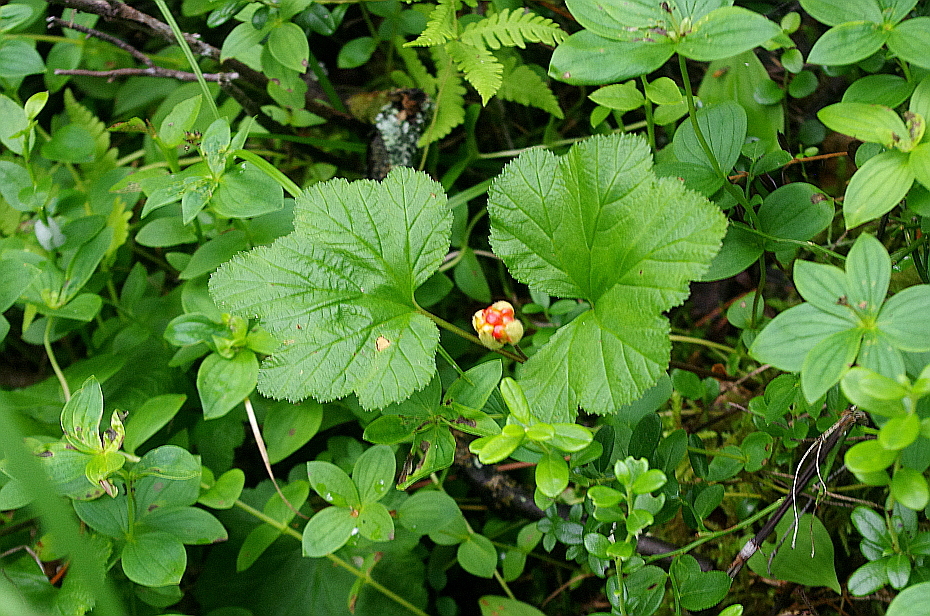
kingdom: Plantae
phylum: Tracheophyta
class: Magnoliopsida
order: Rosales
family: Rosaceae
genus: Rubus
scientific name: Rubus chamaemorus
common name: Cloudberry
